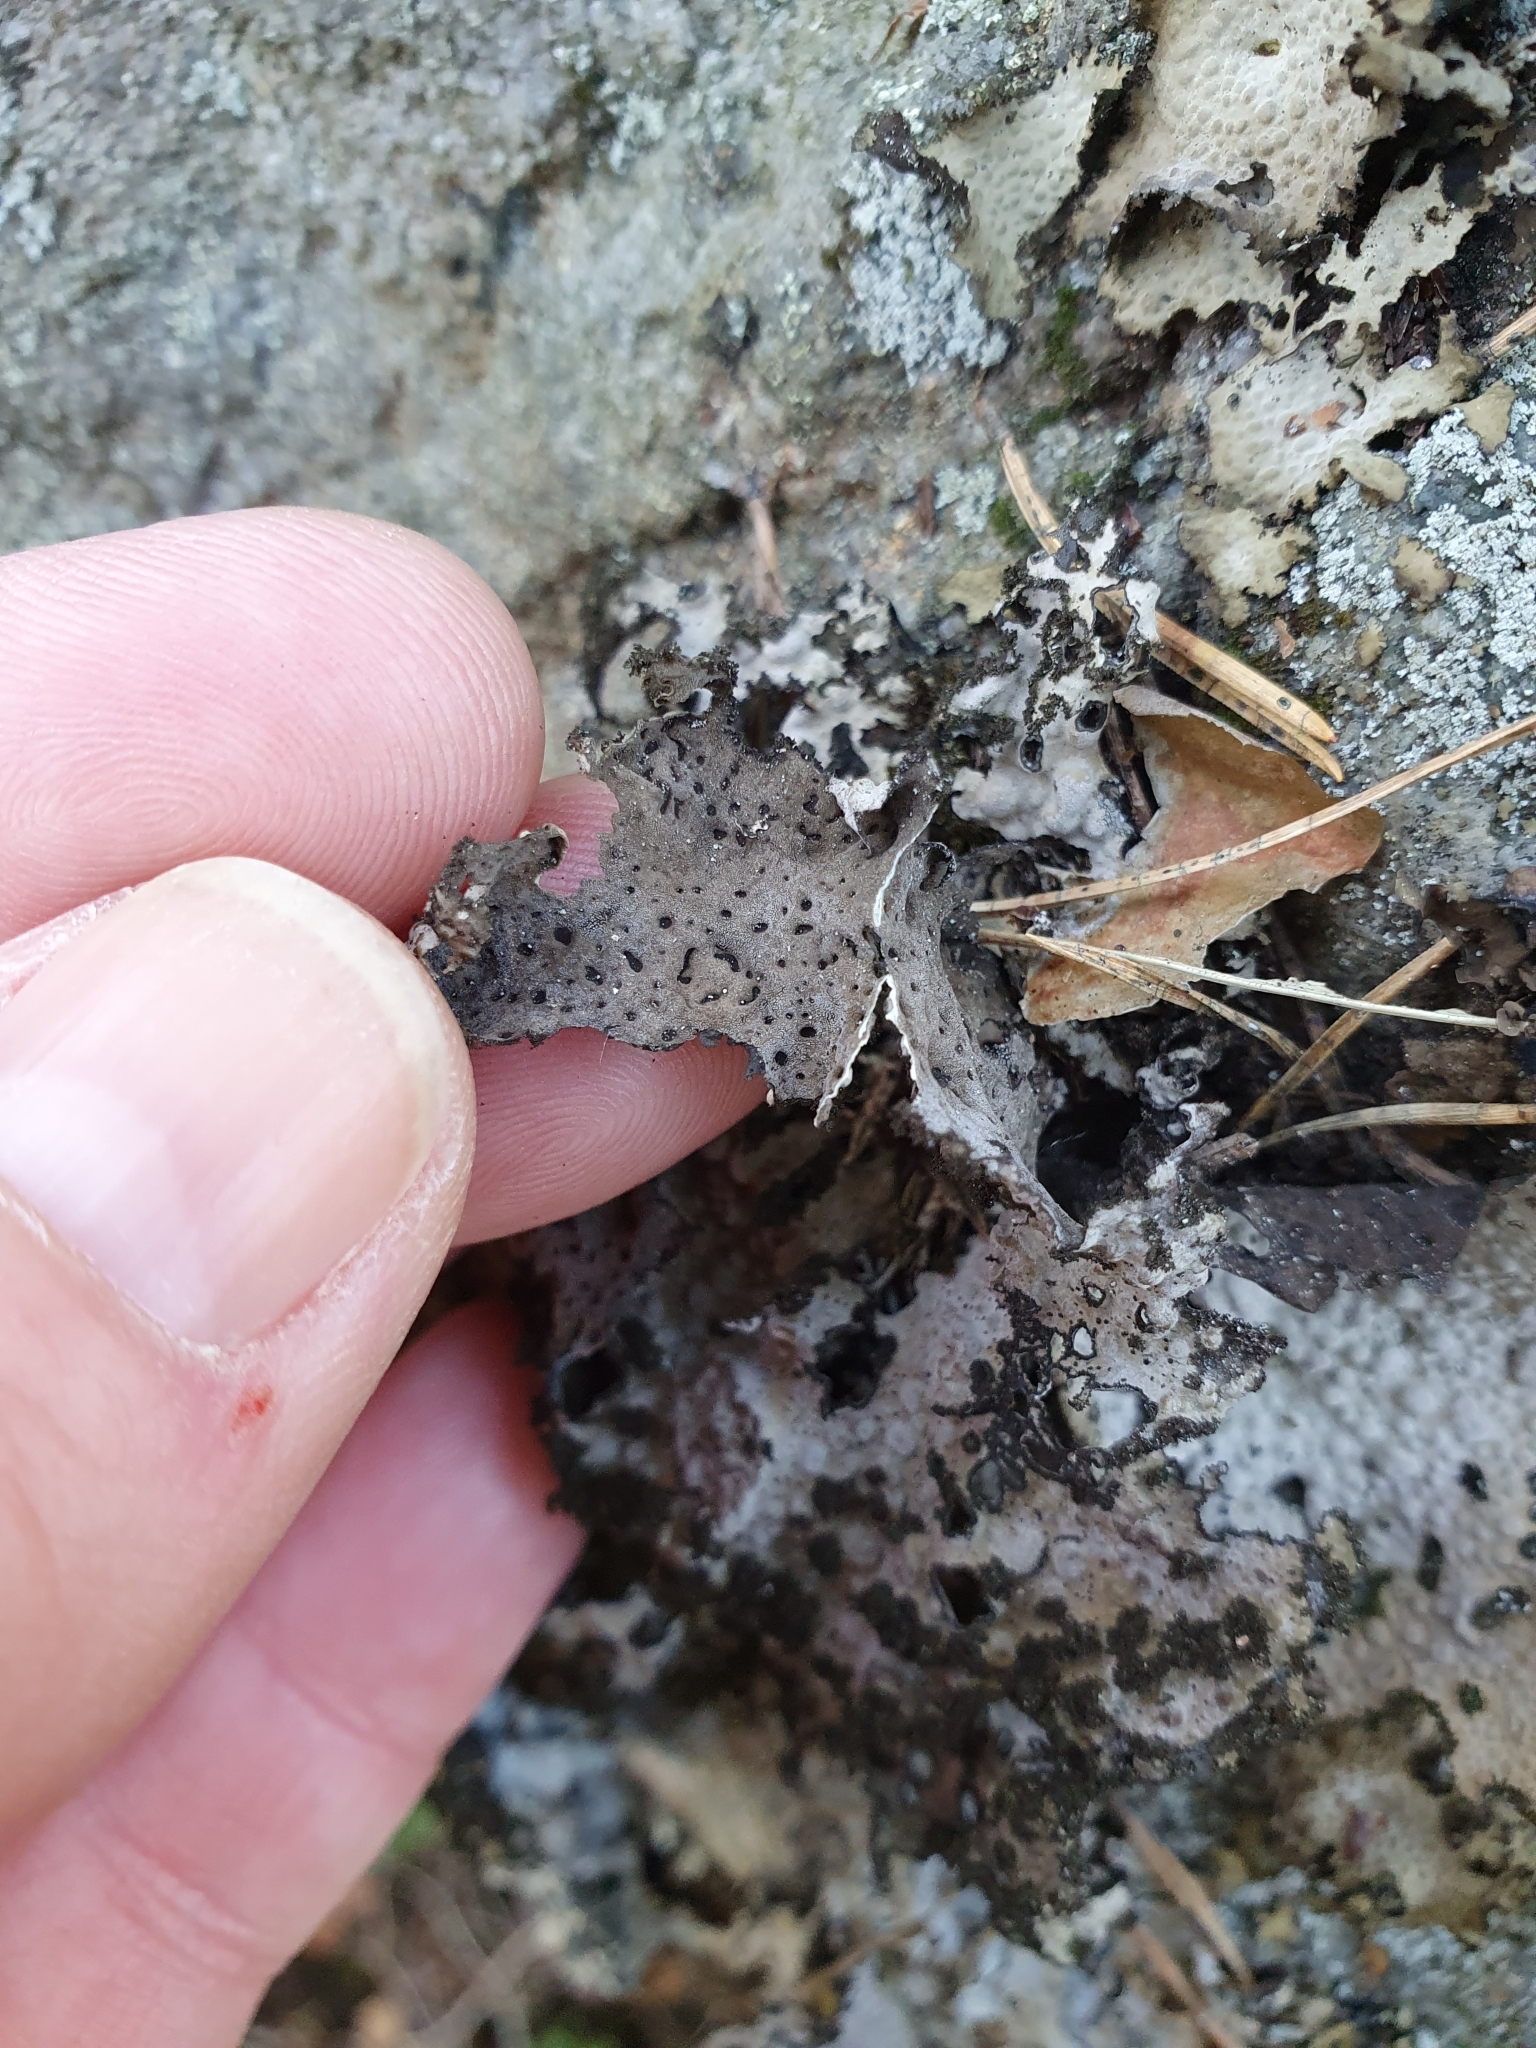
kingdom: Fungi
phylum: Ascomycota
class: Lecanoromycetes
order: Umbilicariales
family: Umbilicariaceae
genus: Lasallia
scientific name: Lasallia pustulata
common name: Blistered toadskin lichen
